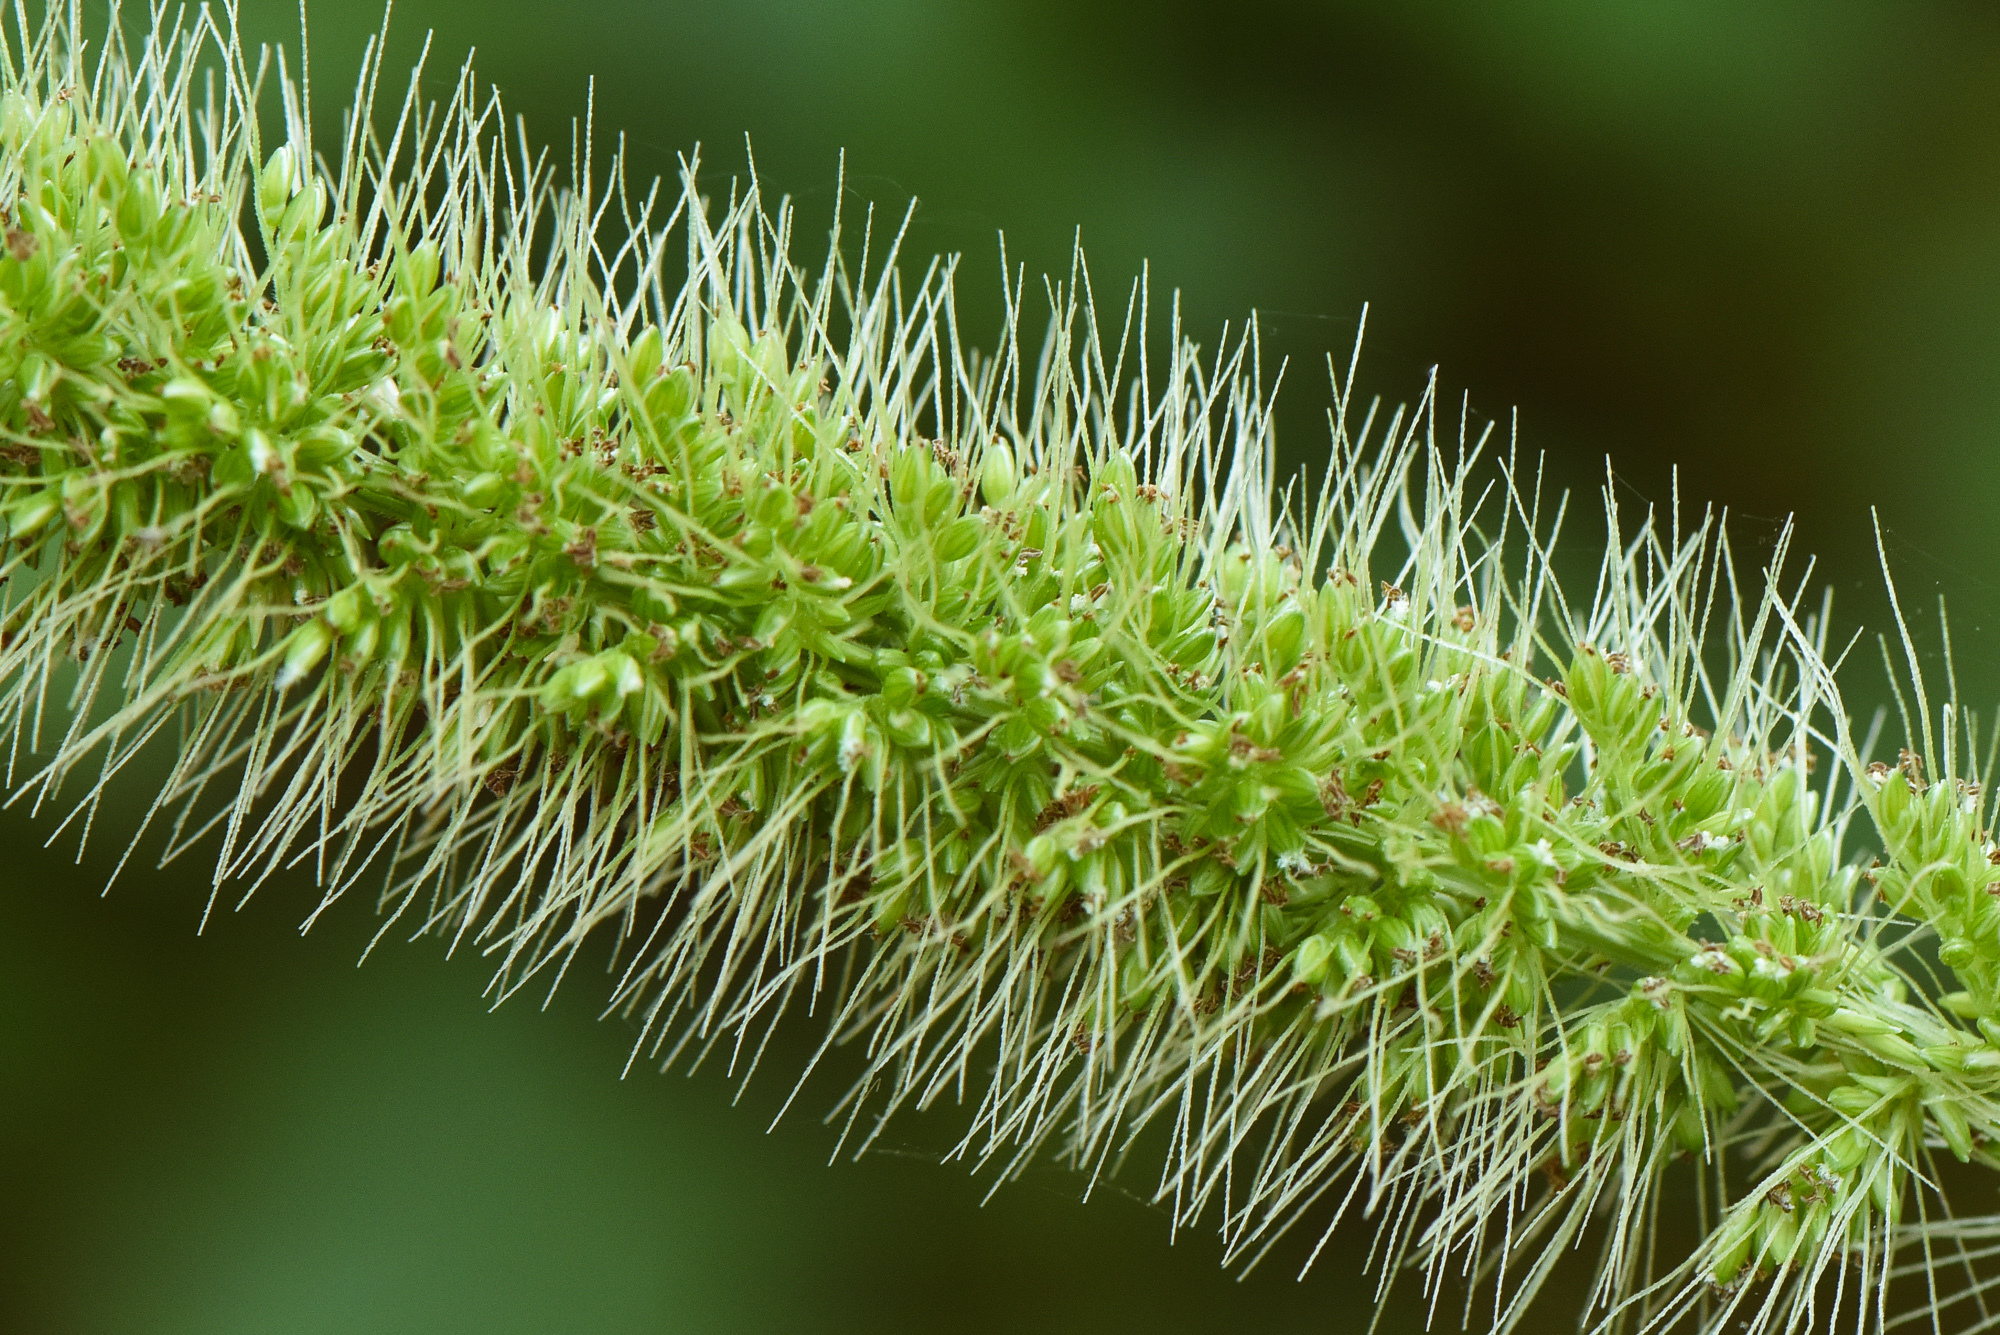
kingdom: Plantae
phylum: Tracheophyta
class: Liliopsida
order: Poales
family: Poaceae
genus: Setaria
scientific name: Setaria viridis
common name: Green bristlegrass
